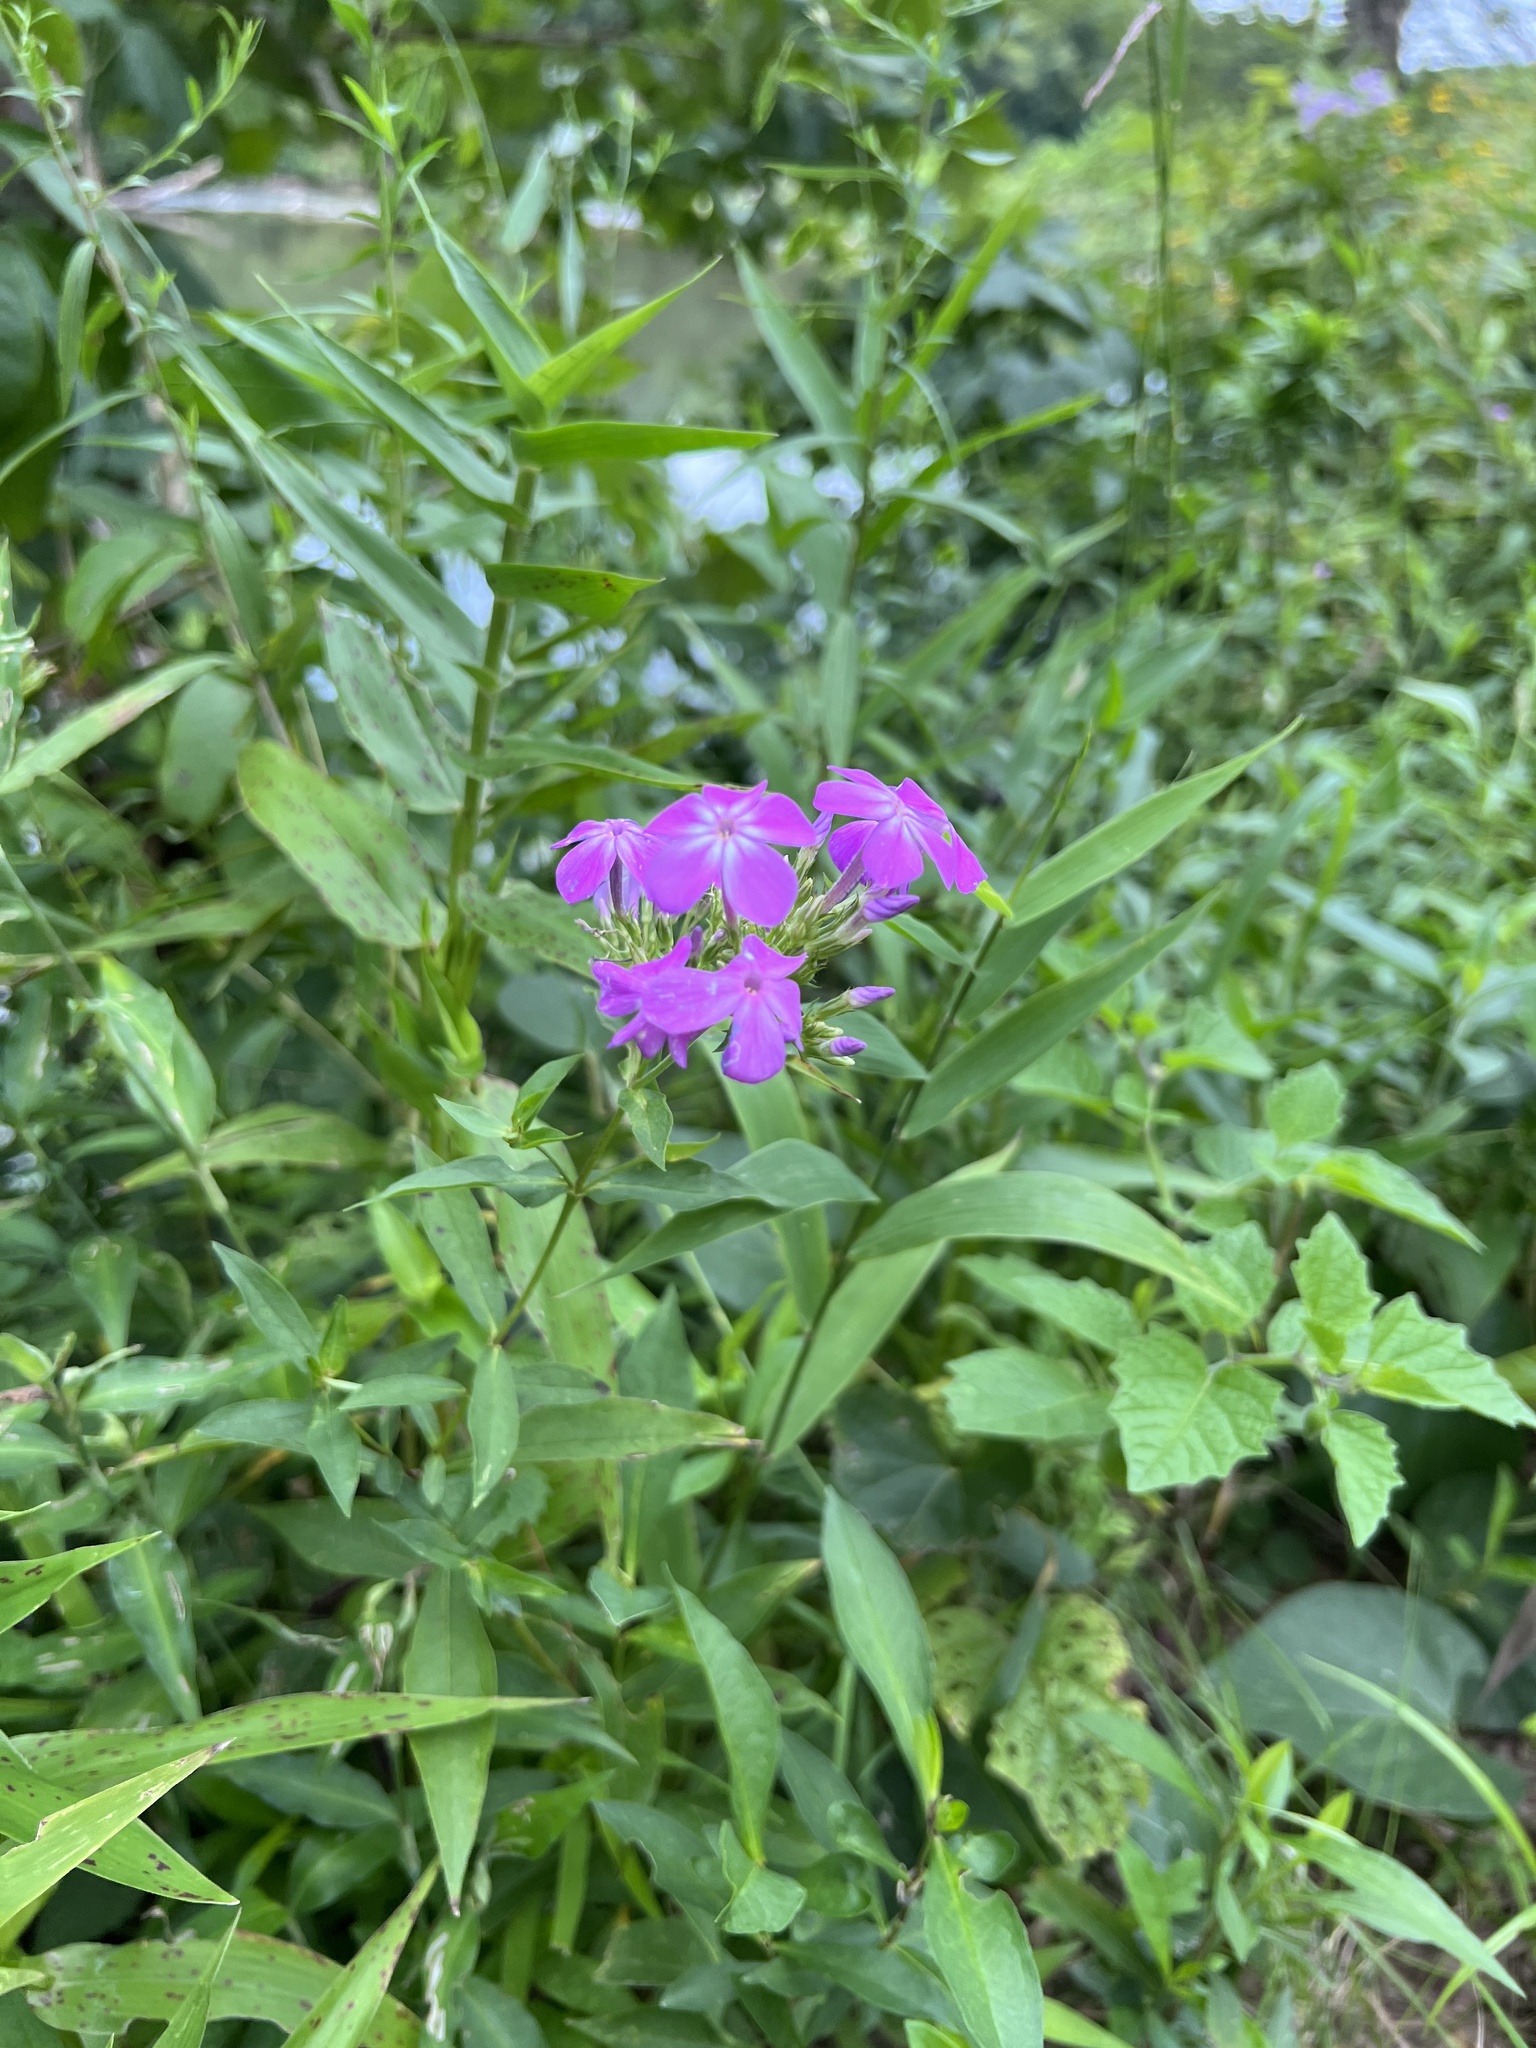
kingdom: Plantae
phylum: Tracheophyta
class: Magnoliopsida
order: Ericales
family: Polemoniaceae
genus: Phlox
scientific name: Phlox paniculata
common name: Fall phlox
